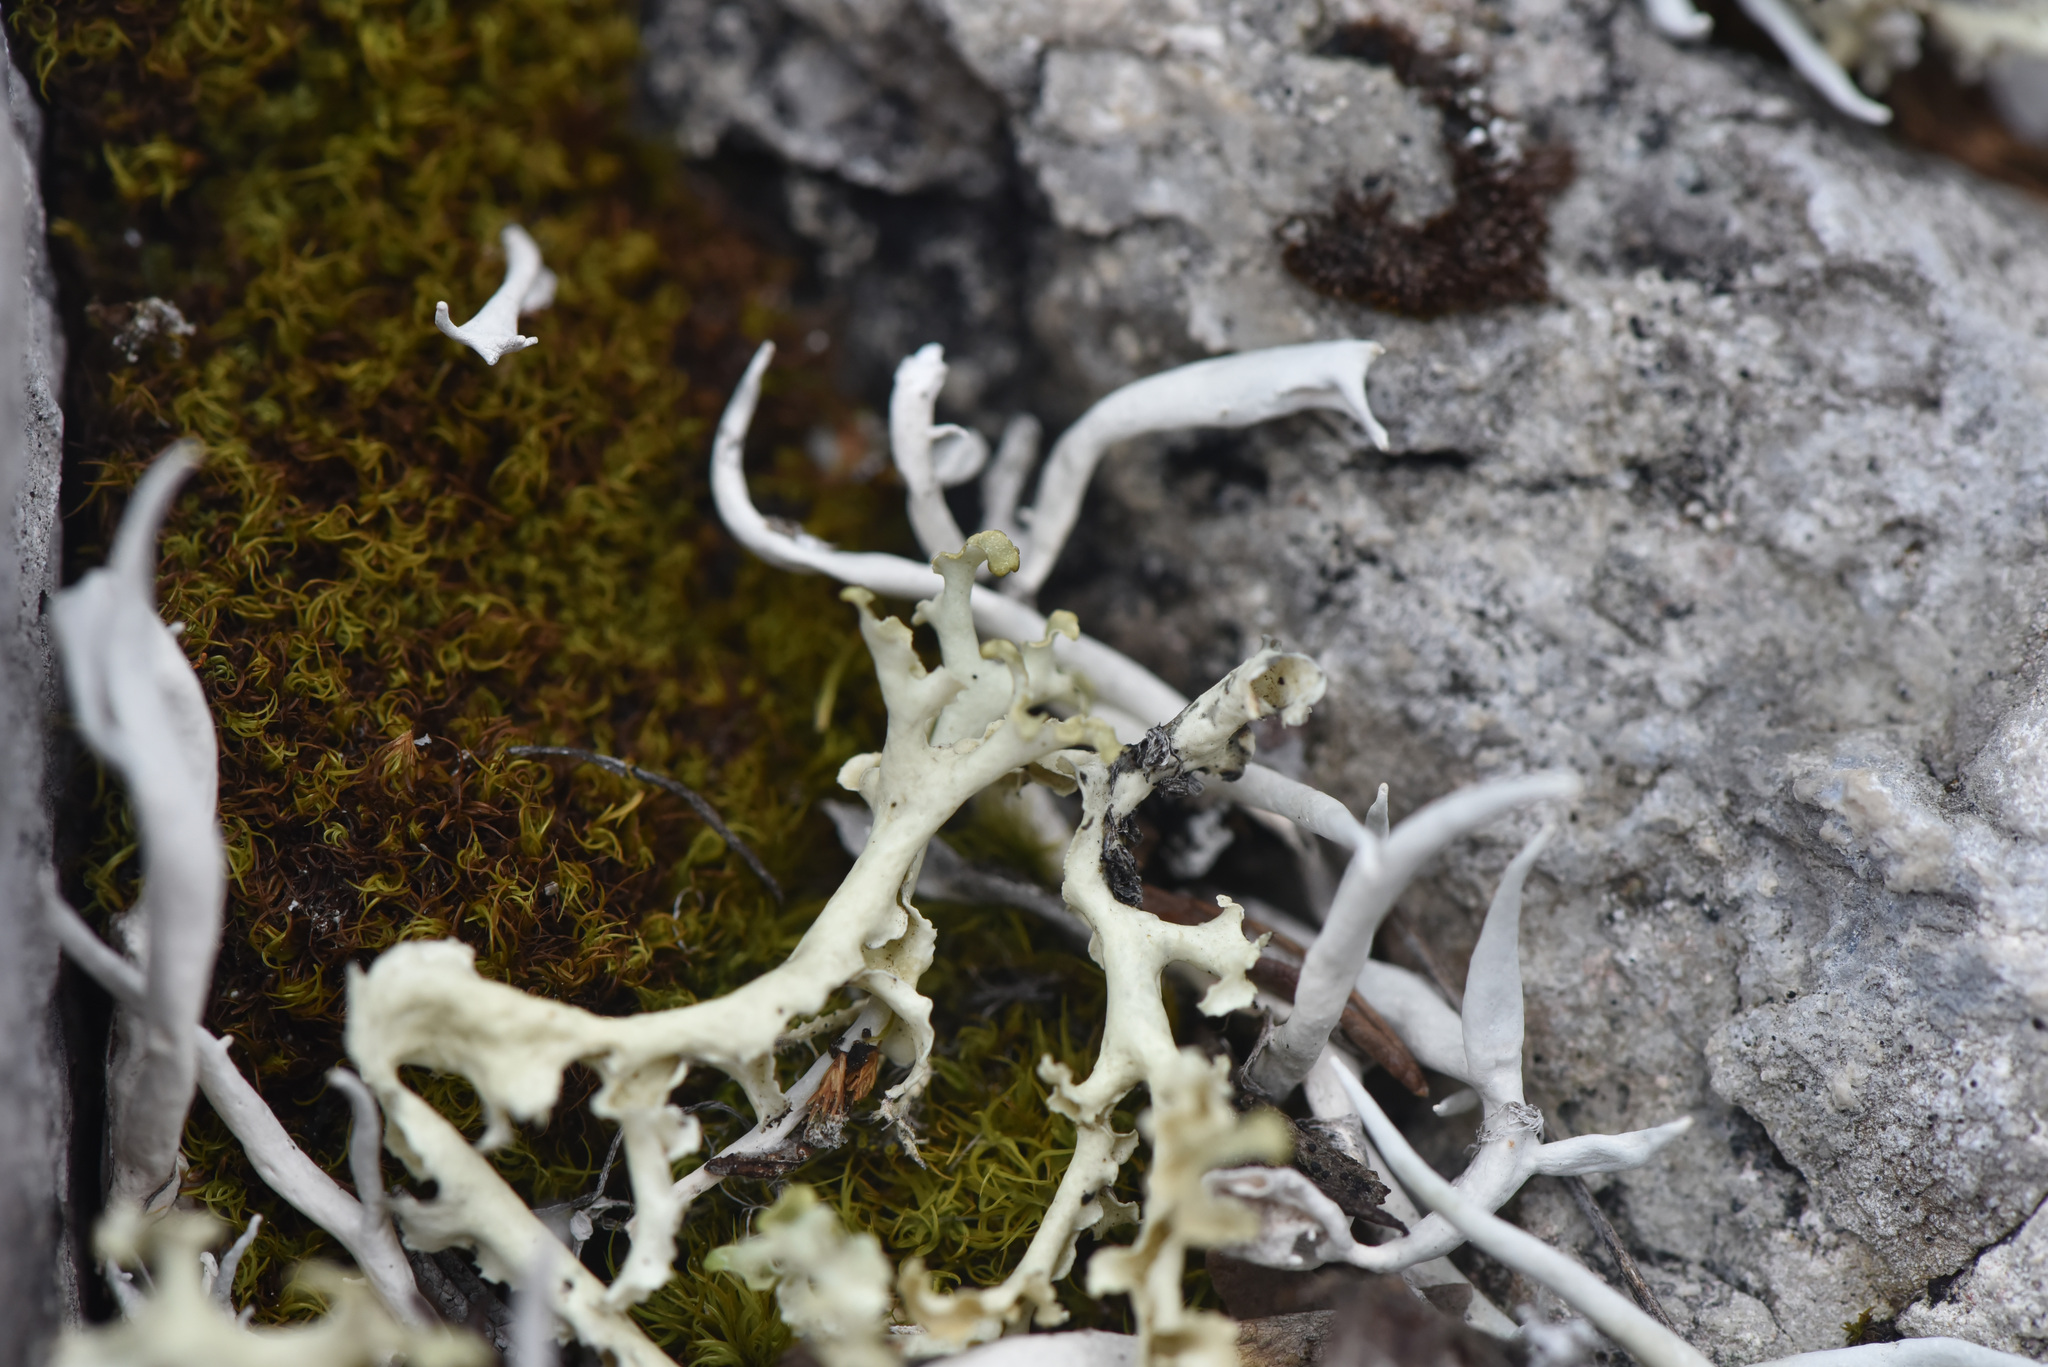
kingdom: Fungi
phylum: Ascomycota
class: Lecanoromycetes
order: Lecanorales
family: Parmeliaceae
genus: Nephromopsis
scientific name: Nephromopsis cucullata
